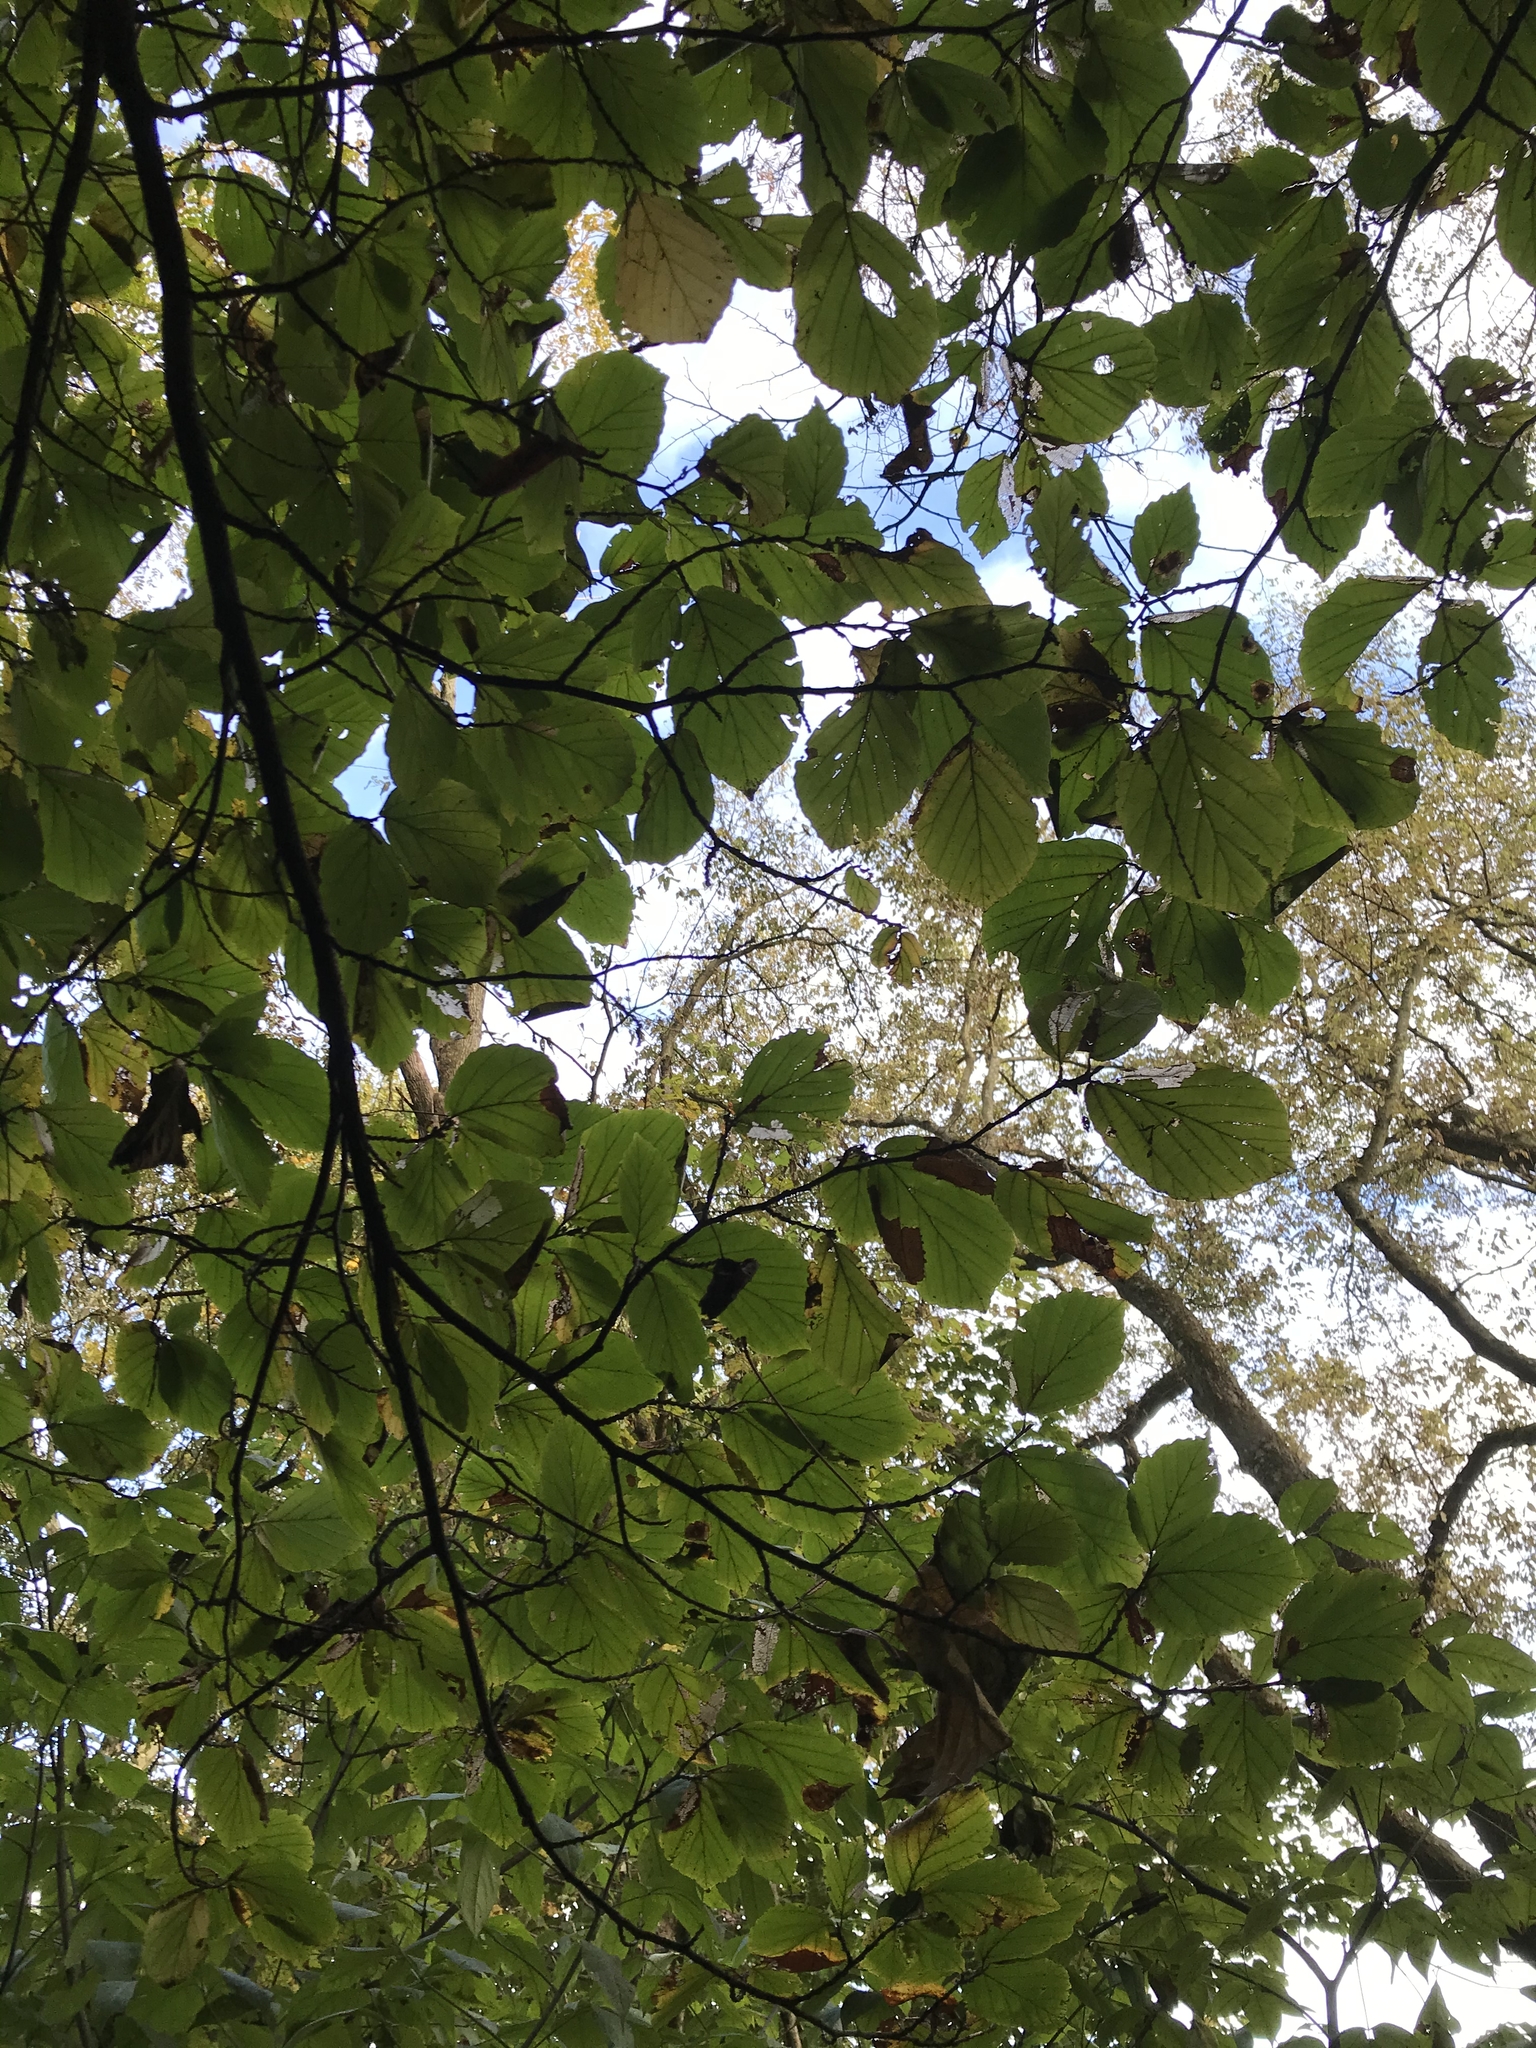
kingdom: Plantae
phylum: Tracheophyta
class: Magnoliopsida
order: Saxifragales
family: Hamamelidaceae
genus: Hamamelis
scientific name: Hamamelis virginiana
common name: Witch-hazel
